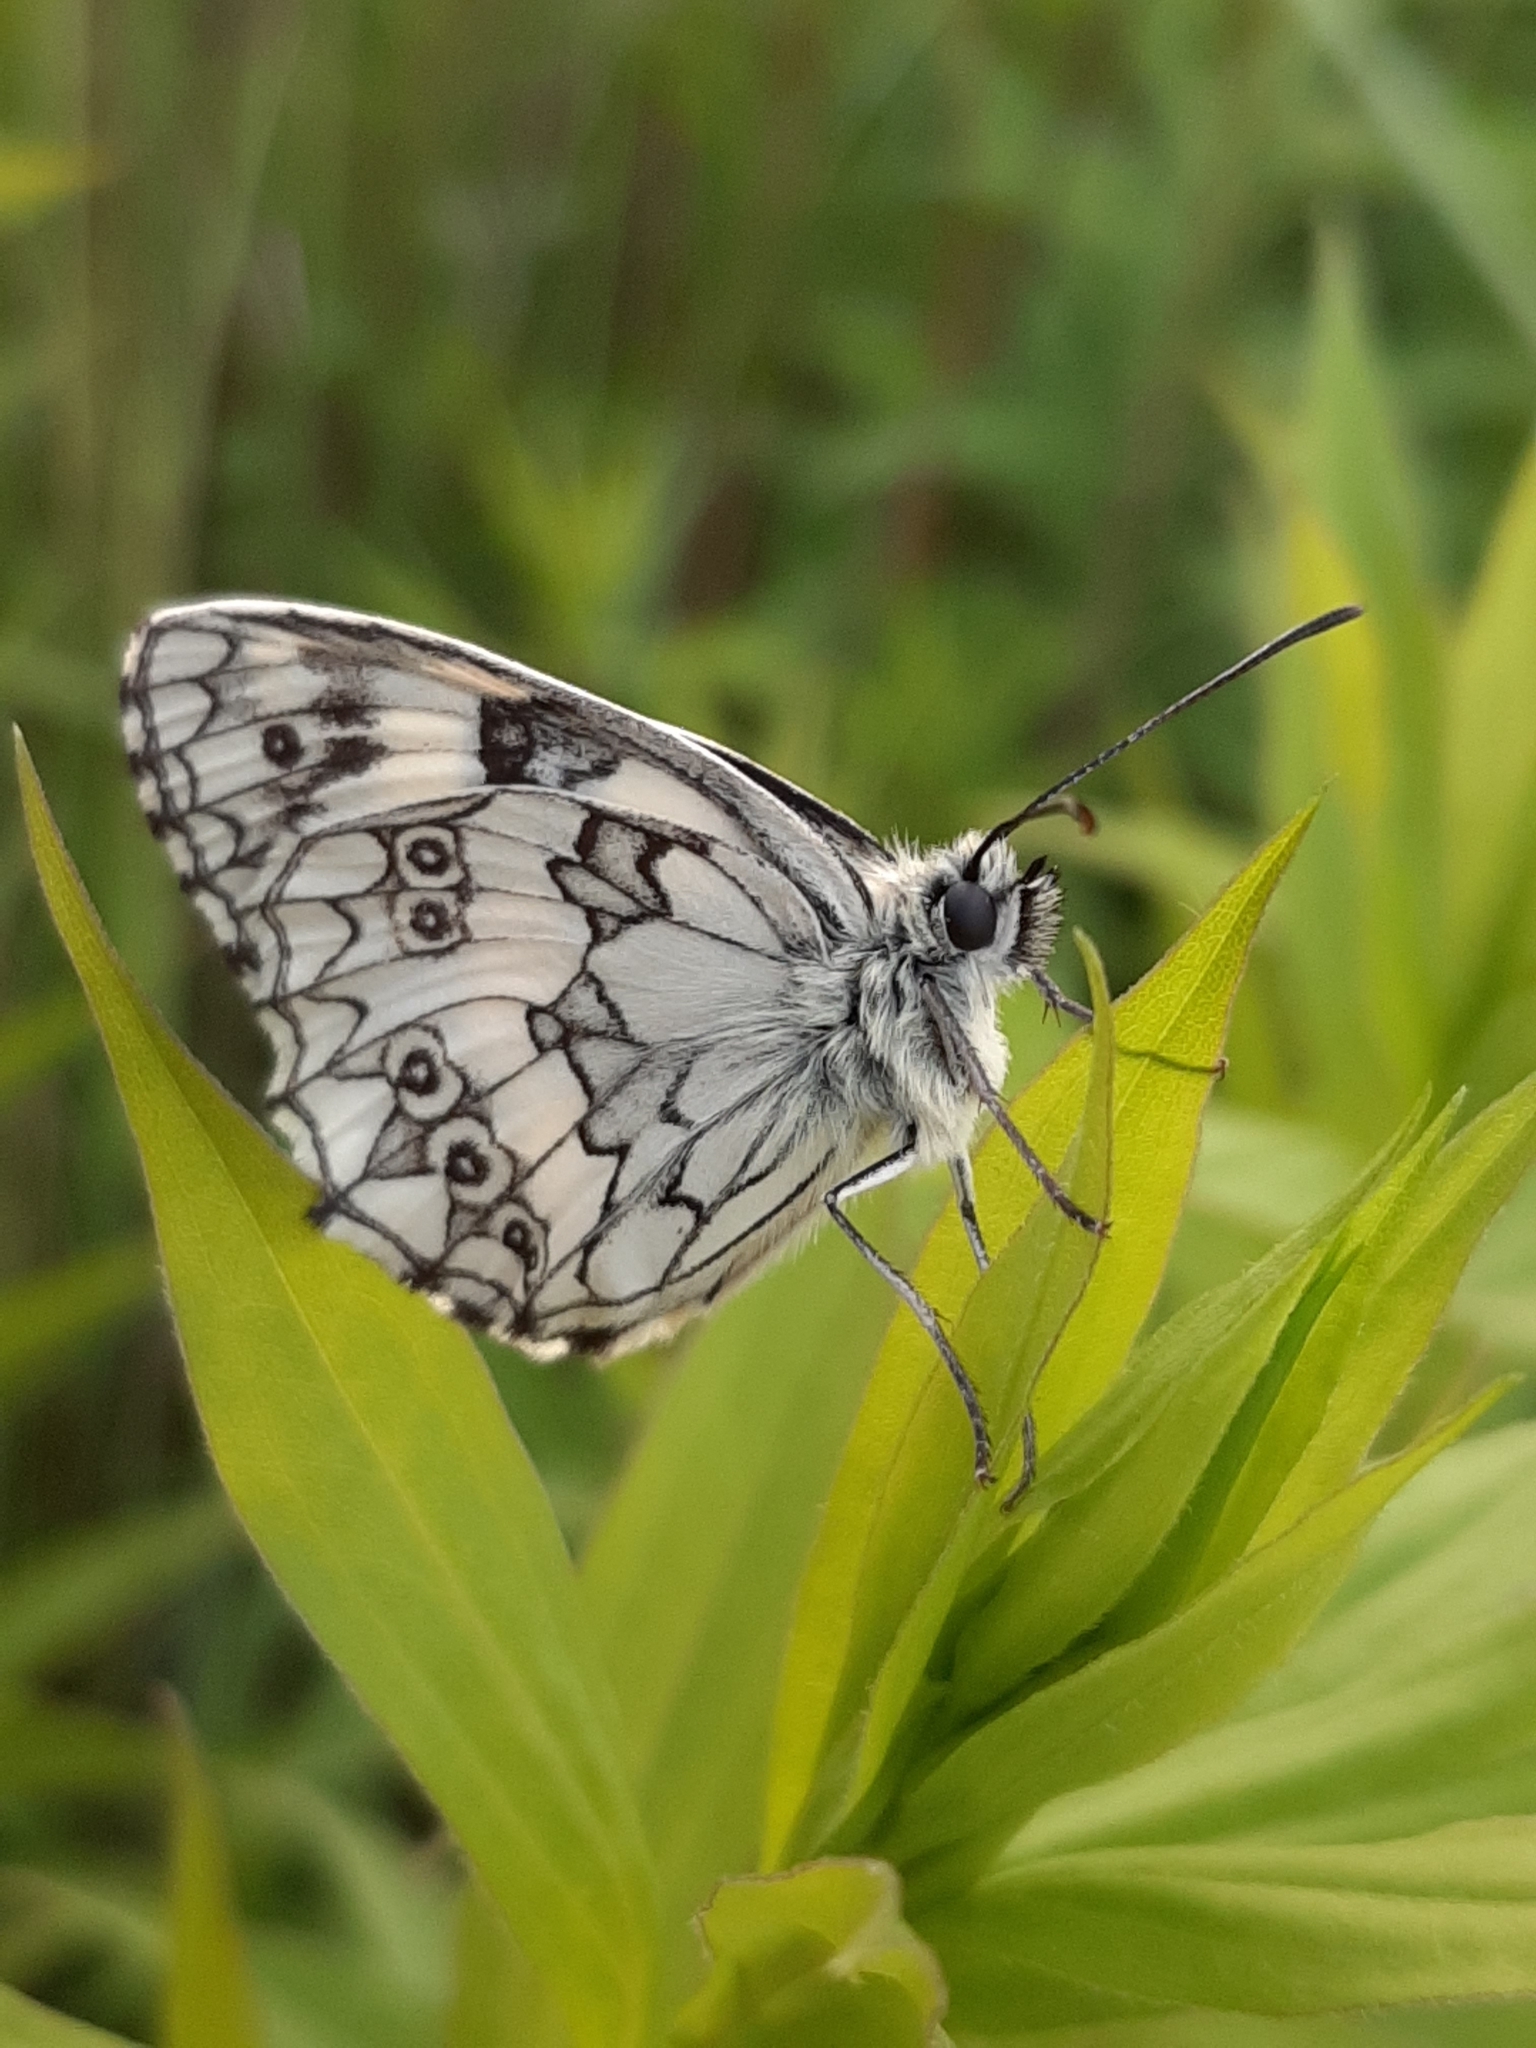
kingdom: Animalia
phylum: Arthropoda
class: Insecta
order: Lepidoptera
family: Nymphalidae
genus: Melanargia
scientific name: Melanargia galathea
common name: Marbled white
